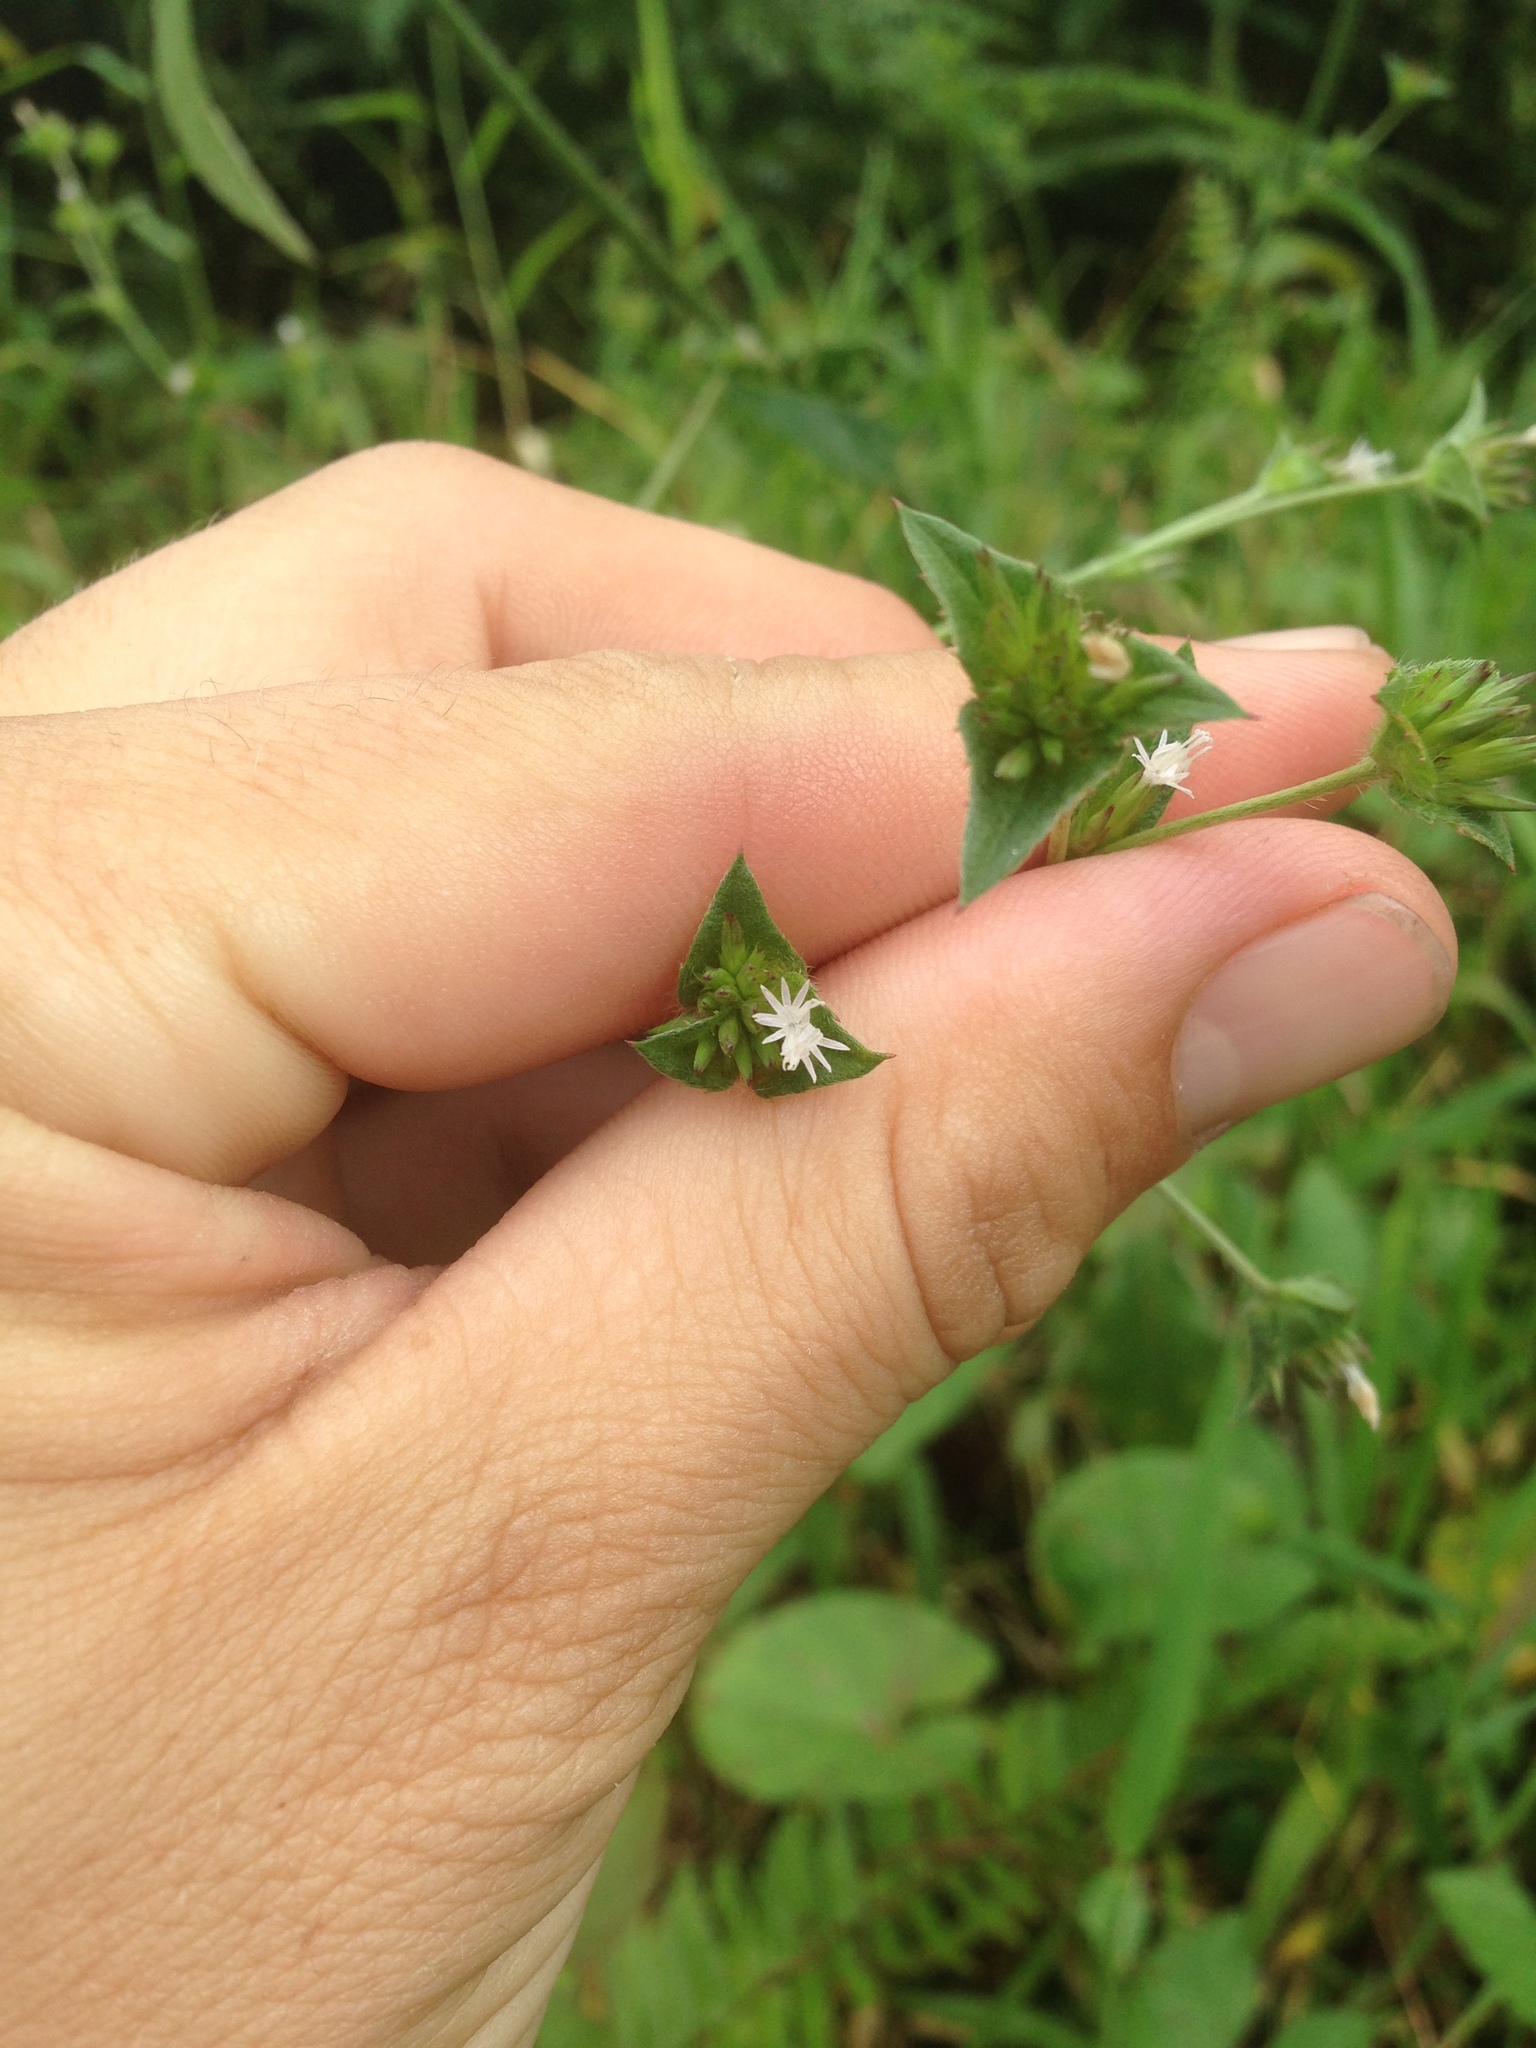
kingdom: Plantae
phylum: Tracheophyta
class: Magnoliopsida
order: Asterales
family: Asteraceae
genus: Elephantopus
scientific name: Elephantopus mollis
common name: Soft elephantsfoot
